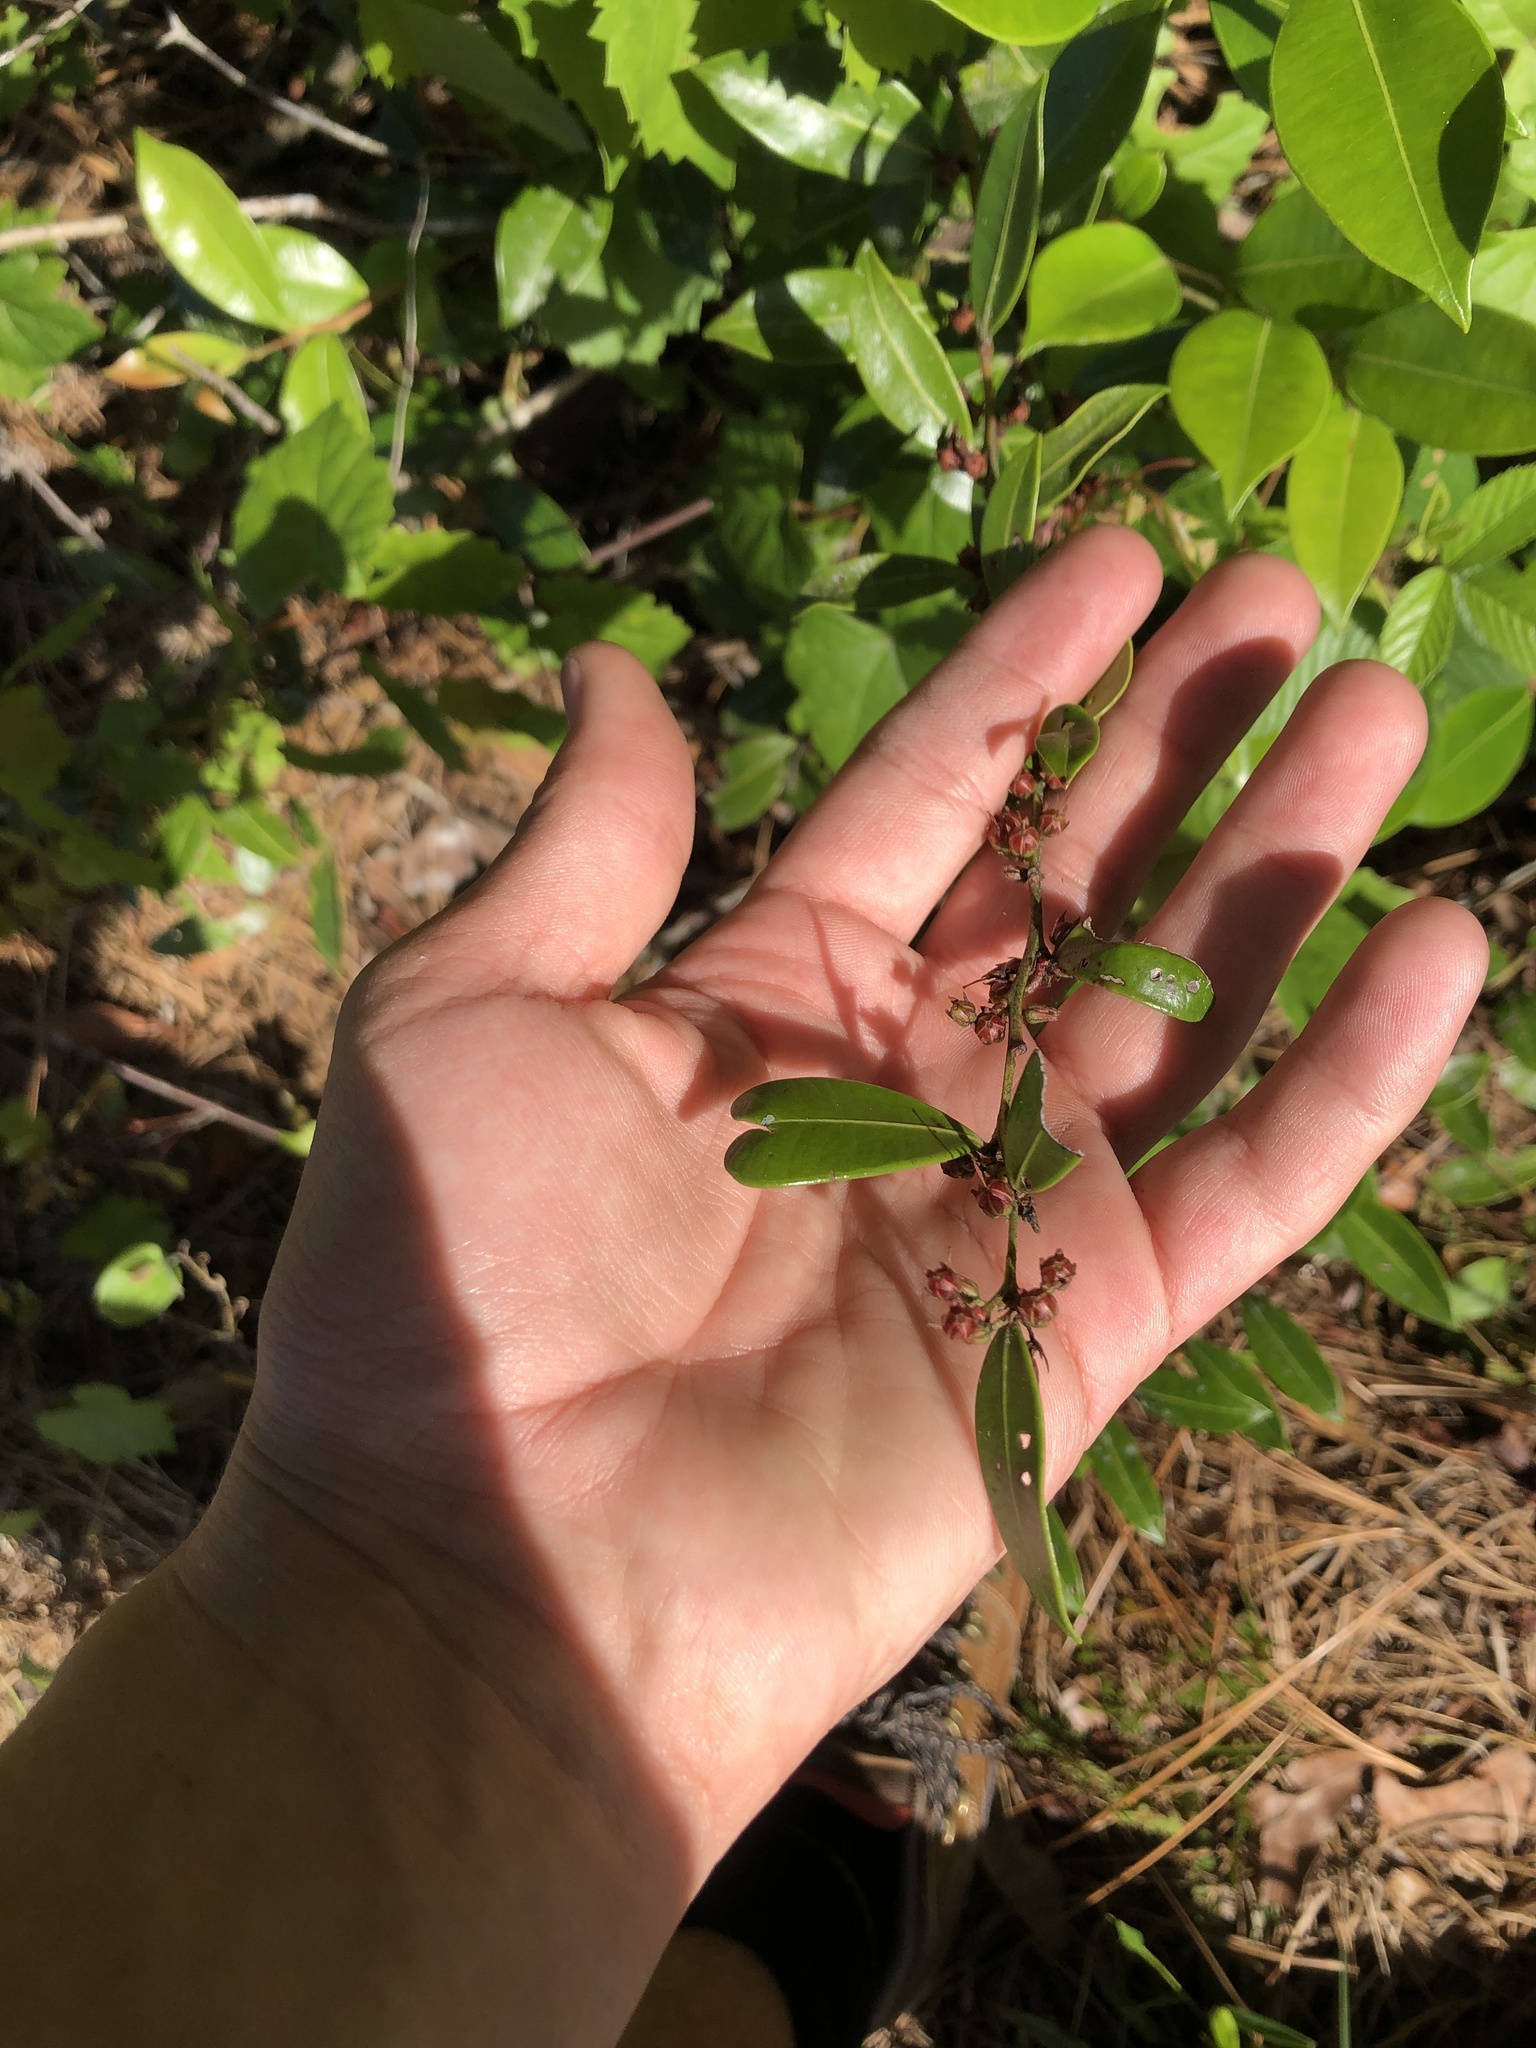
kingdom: Plantae
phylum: Tracheophyta
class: Magnoliopsida
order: Ericales
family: Ericaceae
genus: Lyonia
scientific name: Lyonia lucida
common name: Fetterbush
